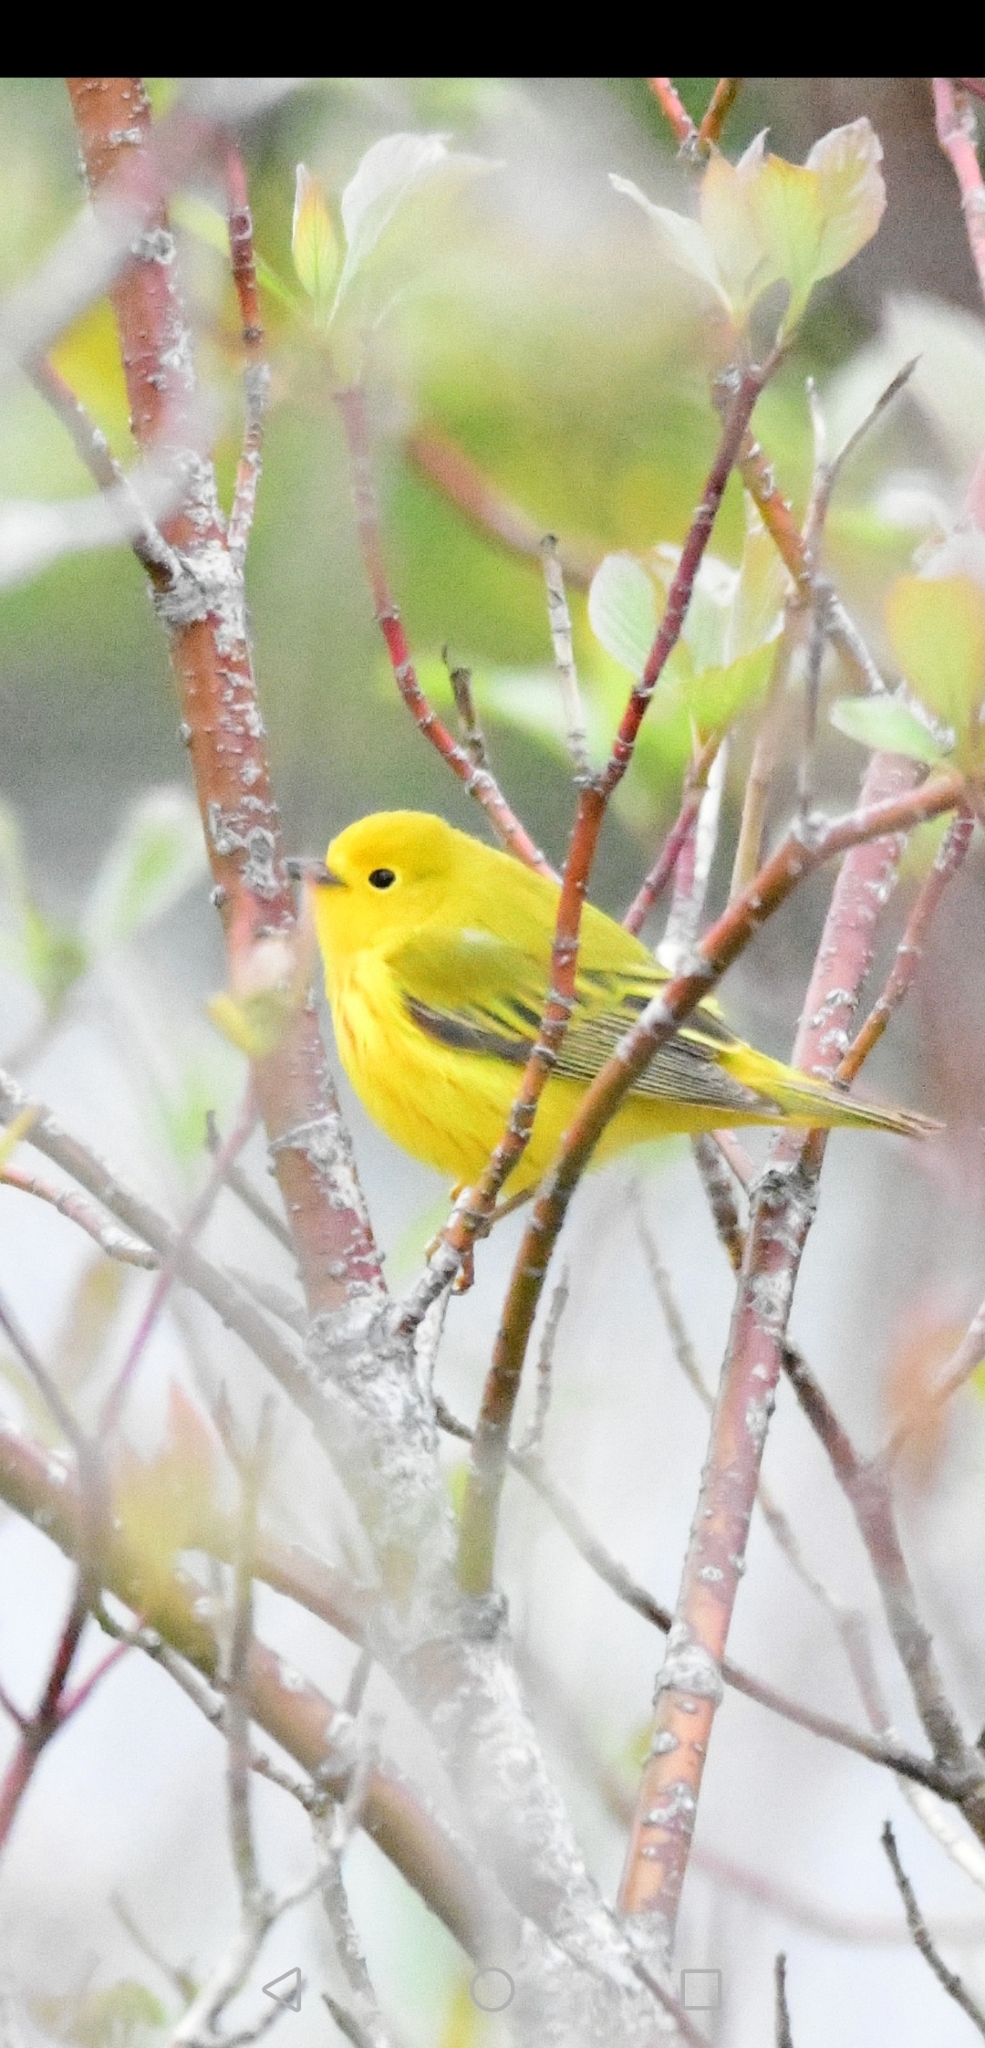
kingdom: Animalia
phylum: Chordata
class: Aves
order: Passeriformes
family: Parulidae
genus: Setophaga
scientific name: Setophaga petechia
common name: Yellow warbler
